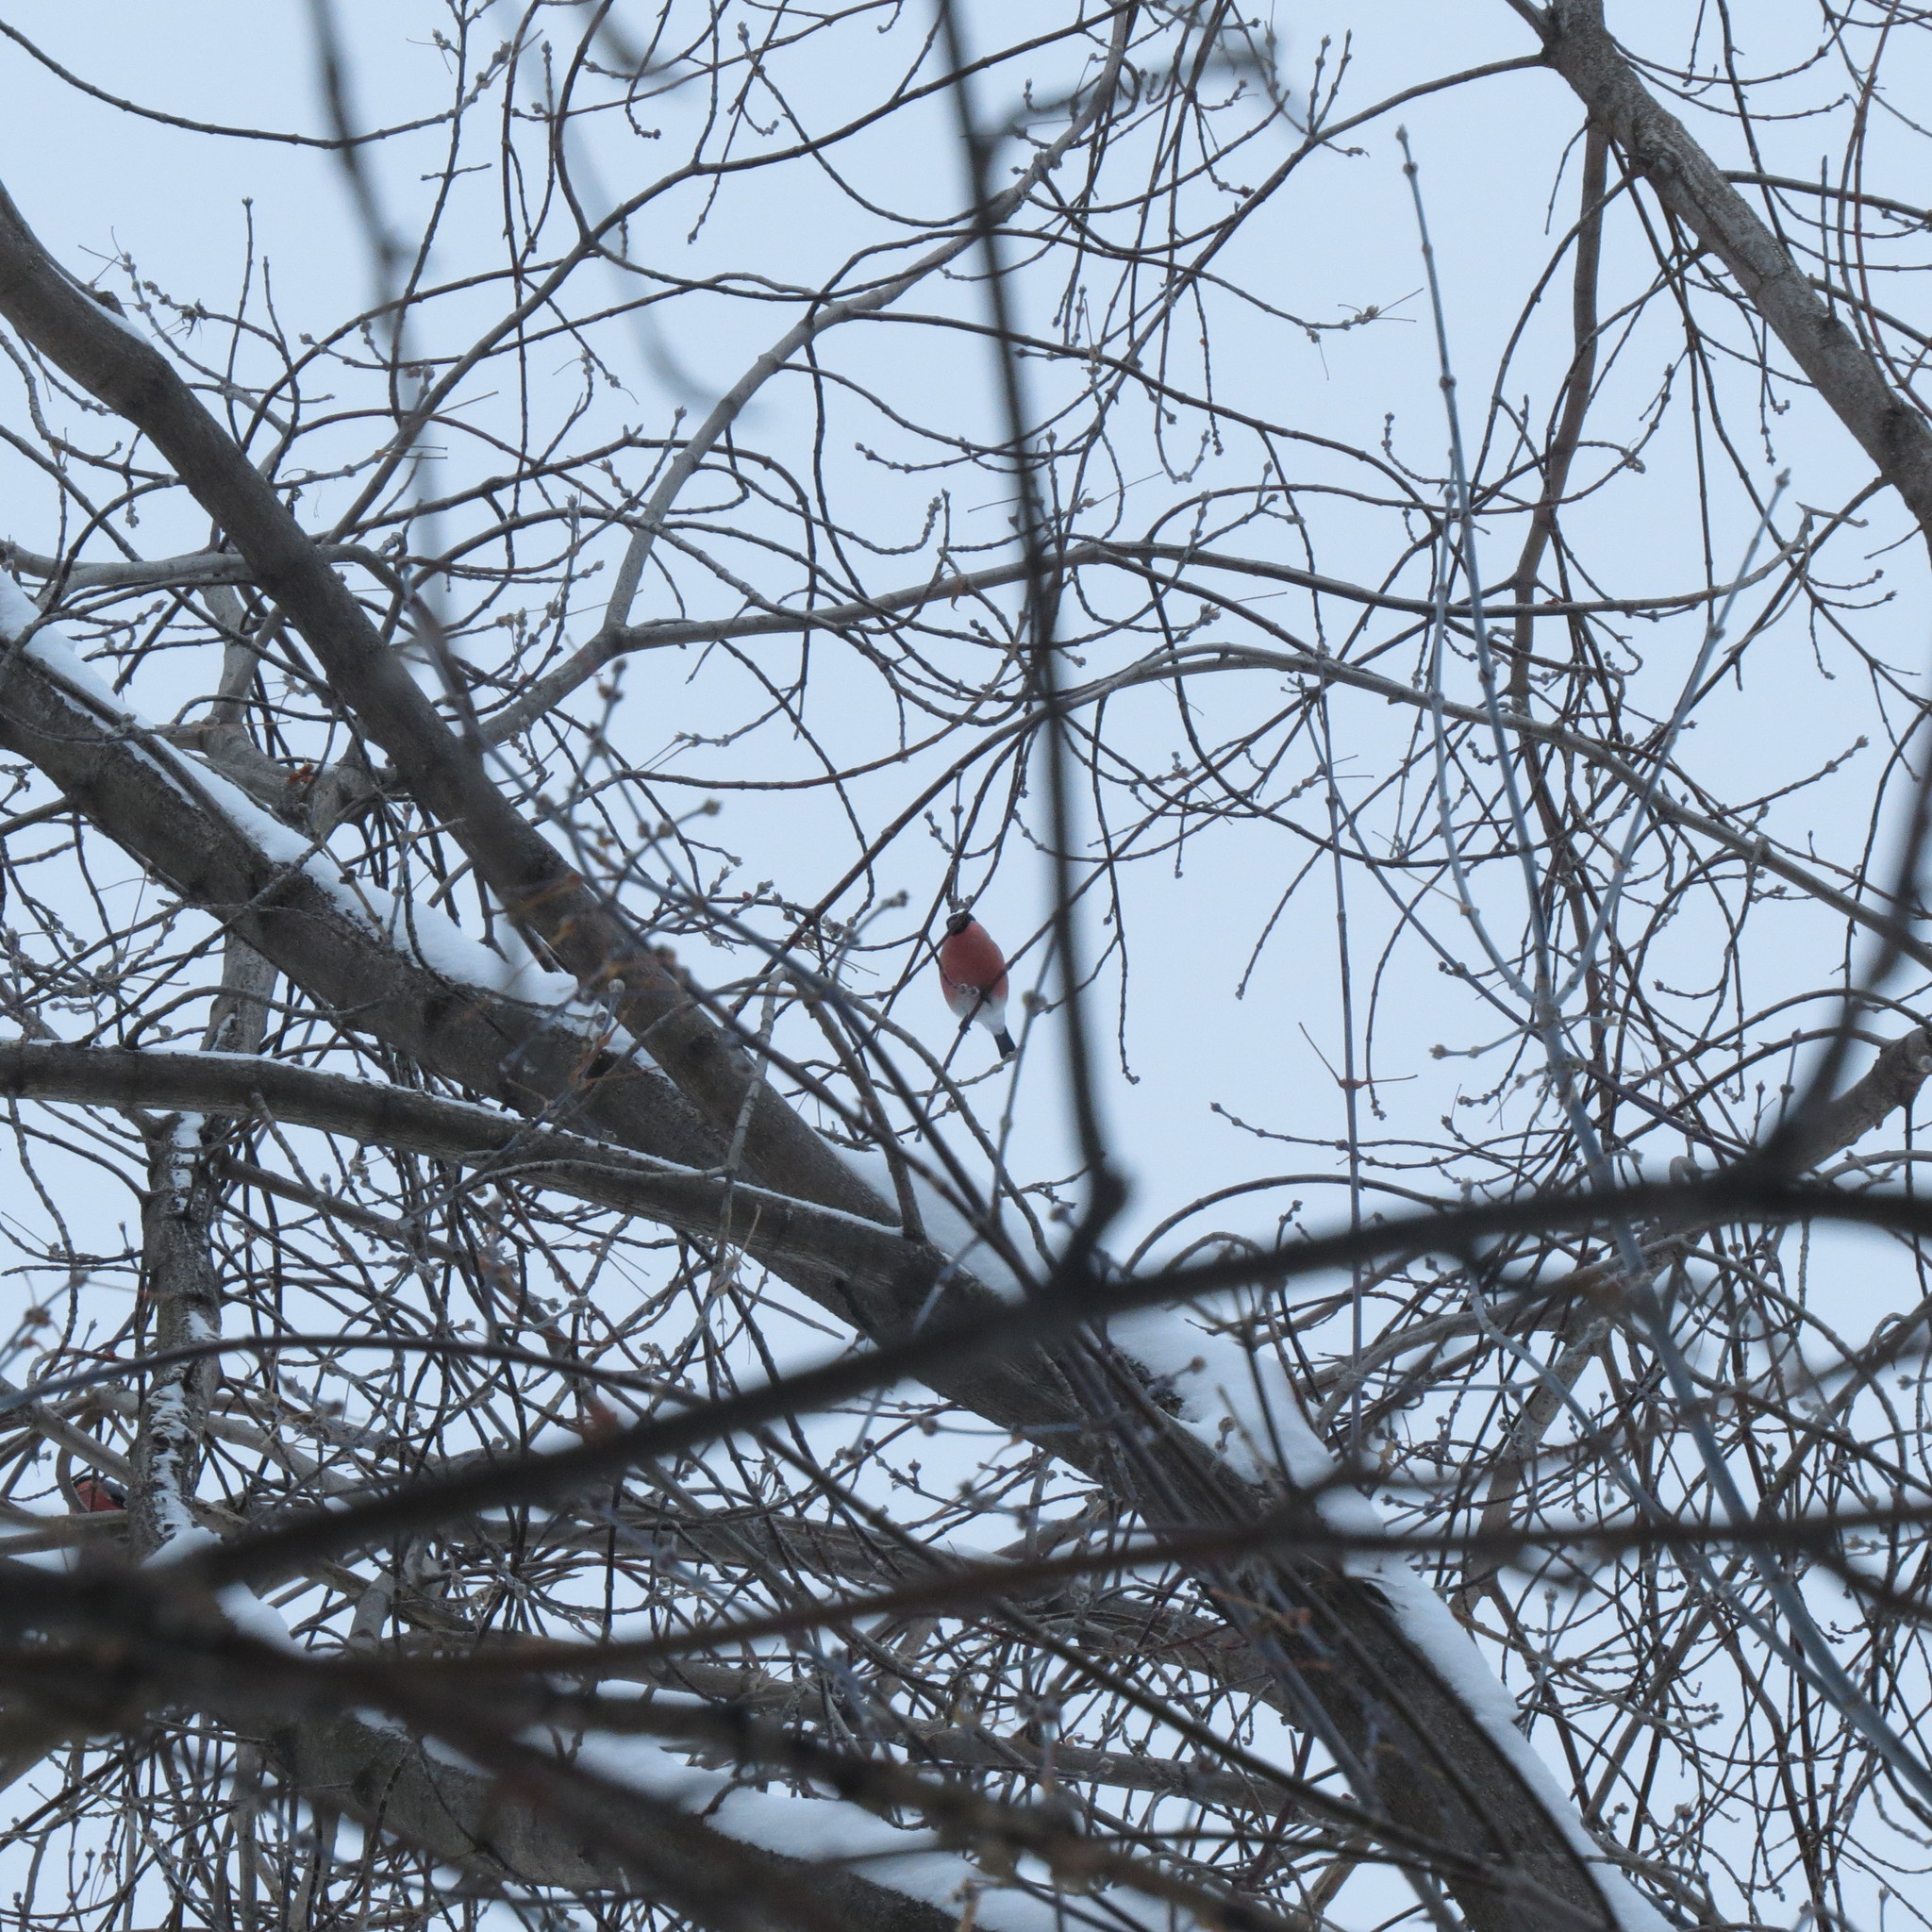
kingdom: Animalia
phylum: Chordata
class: Aves
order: Passeriformes
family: Fringillidae
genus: Pyrrhula
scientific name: Pyrrhula pyrrhula
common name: Eurasian bullfinch
